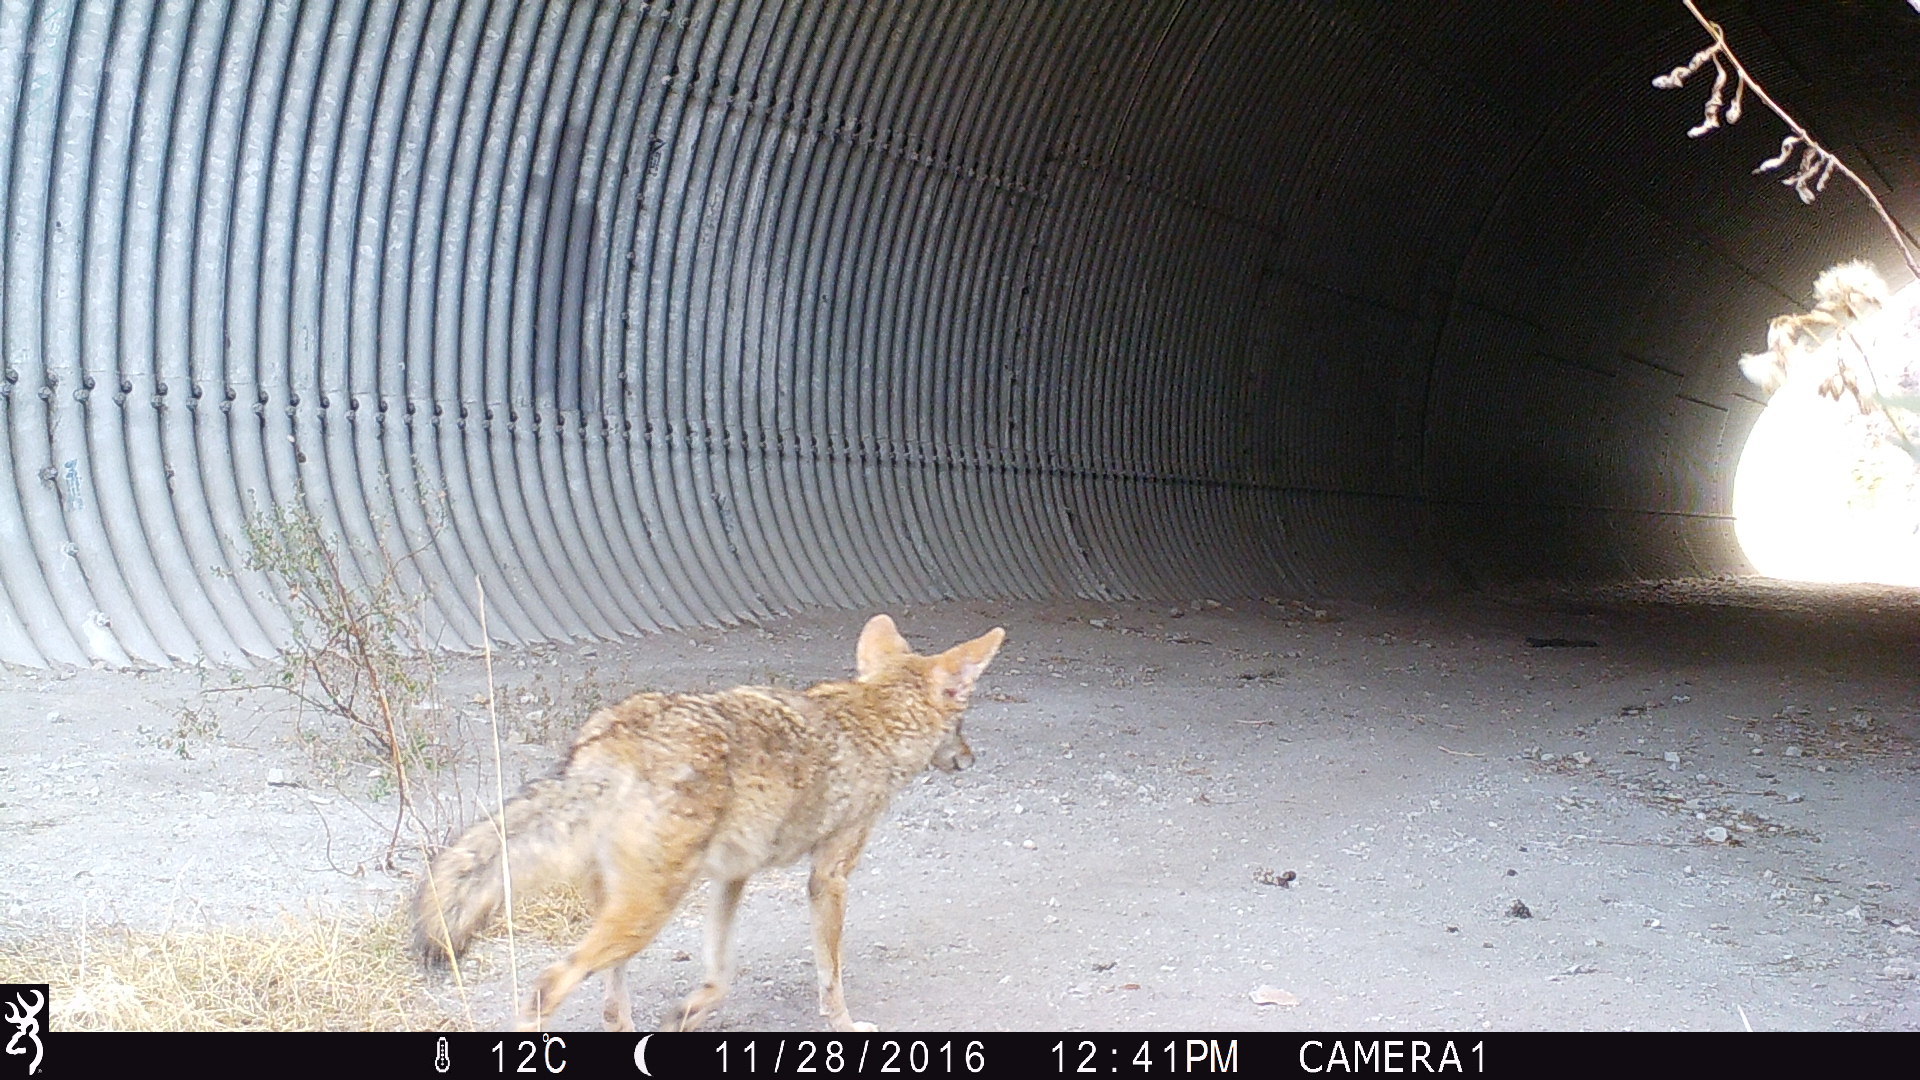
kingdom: Animalia
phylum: Chordata
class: Mammalia
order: Carnivora
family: Canidae
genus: Canis
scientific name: Canis latrans
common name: Coyote
